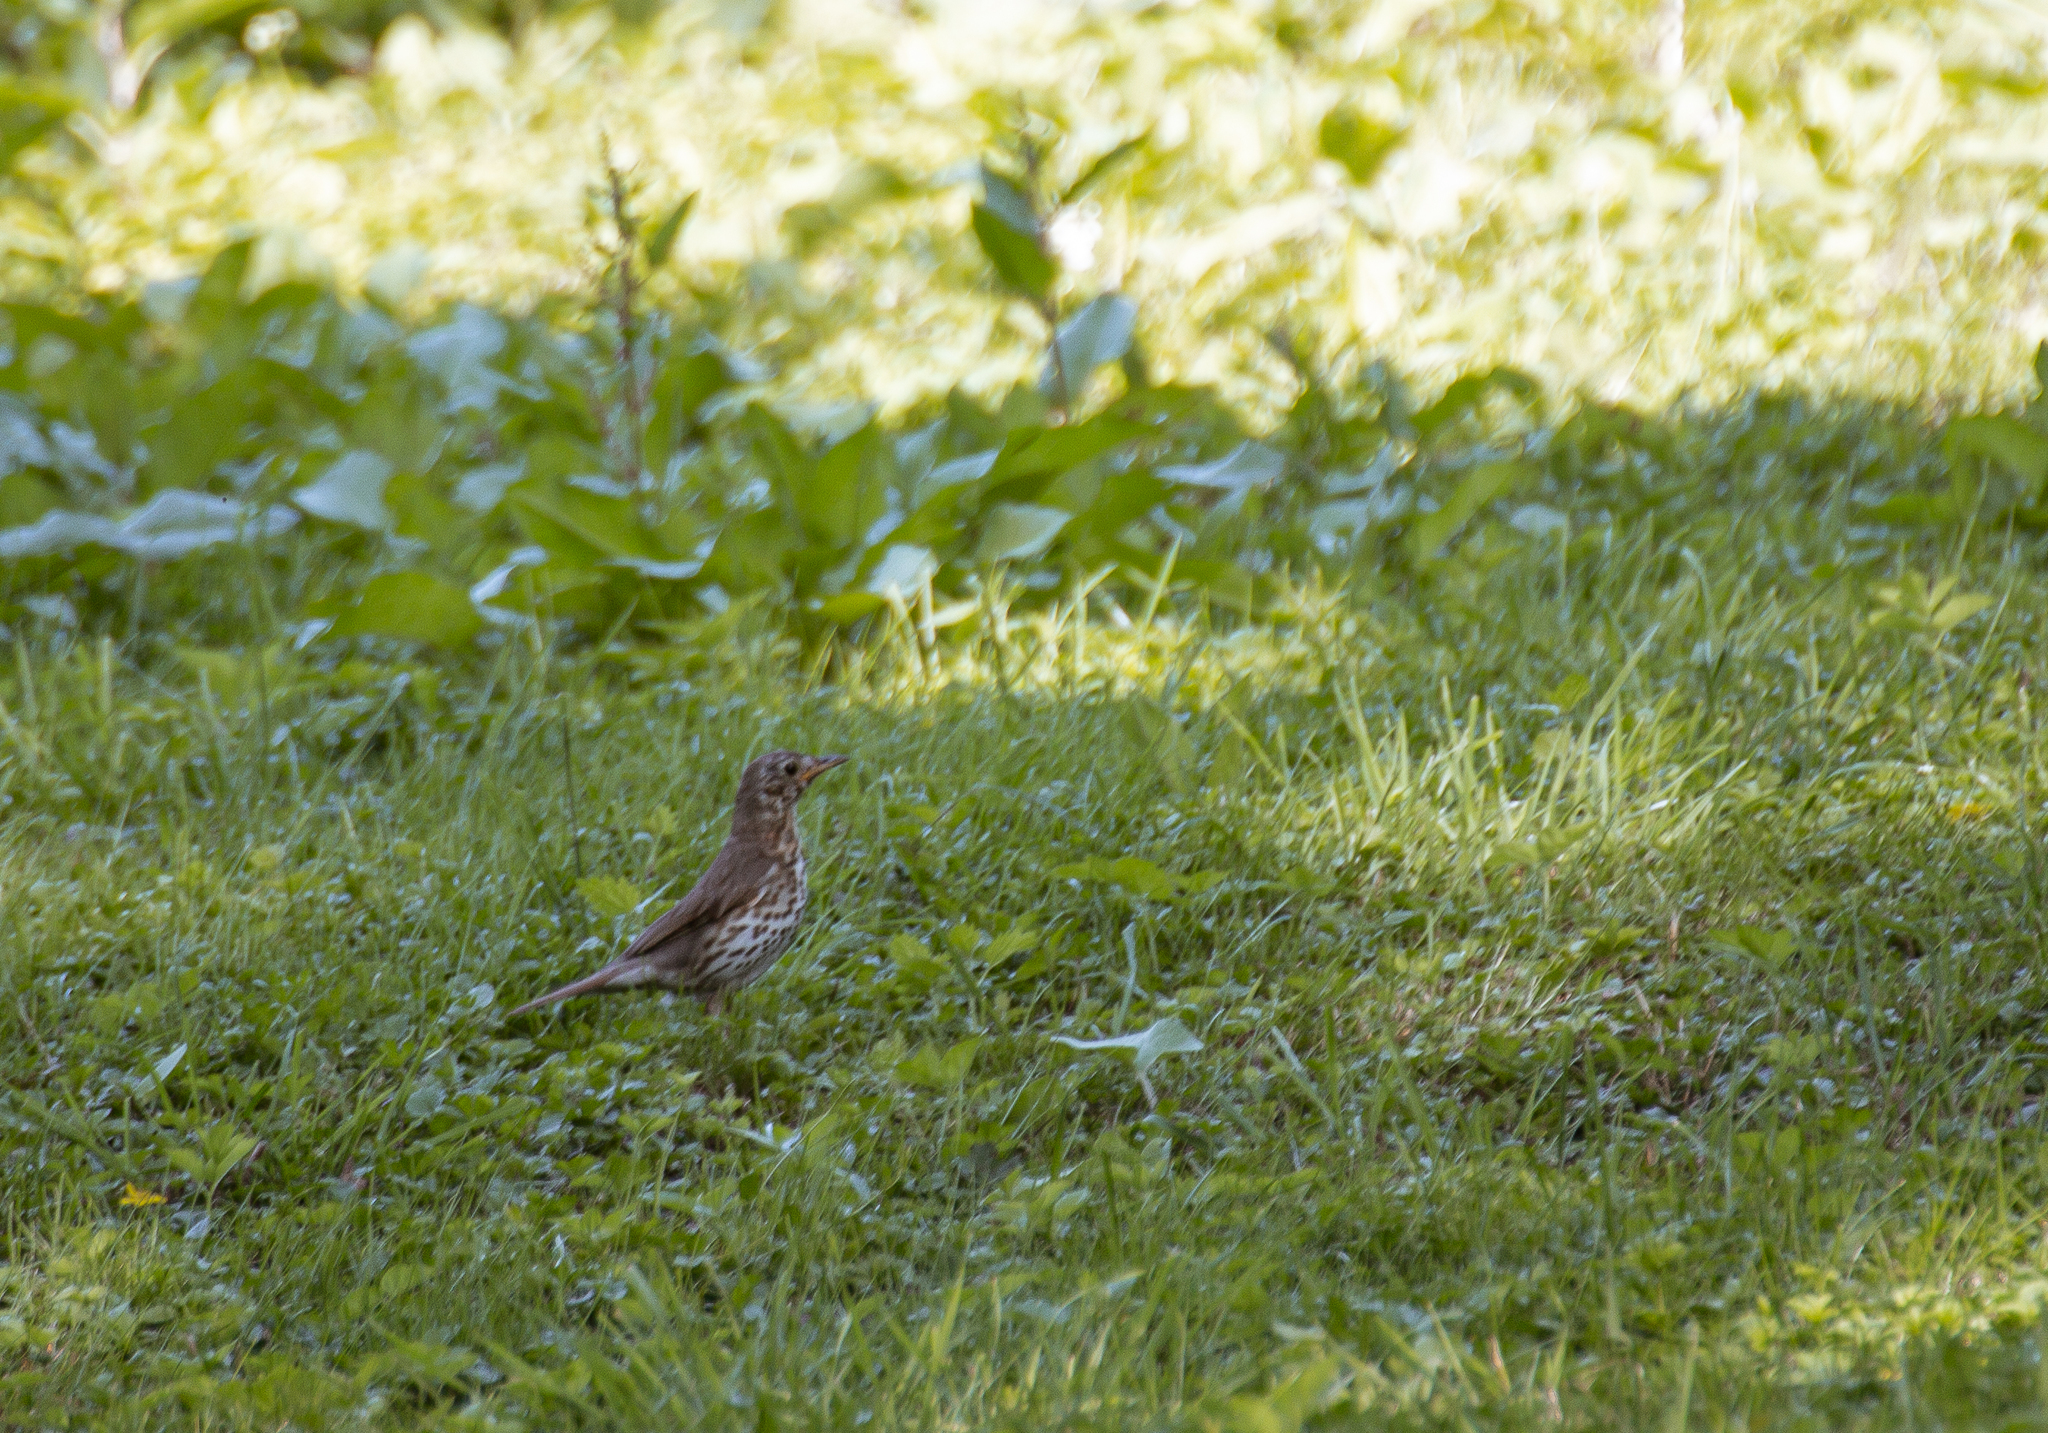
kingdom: Animalia
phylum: Chordata
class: Aves
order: Passeriformes
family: Turdidae
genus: Turdus
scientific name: Turdus philomelos
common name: Song thrush
